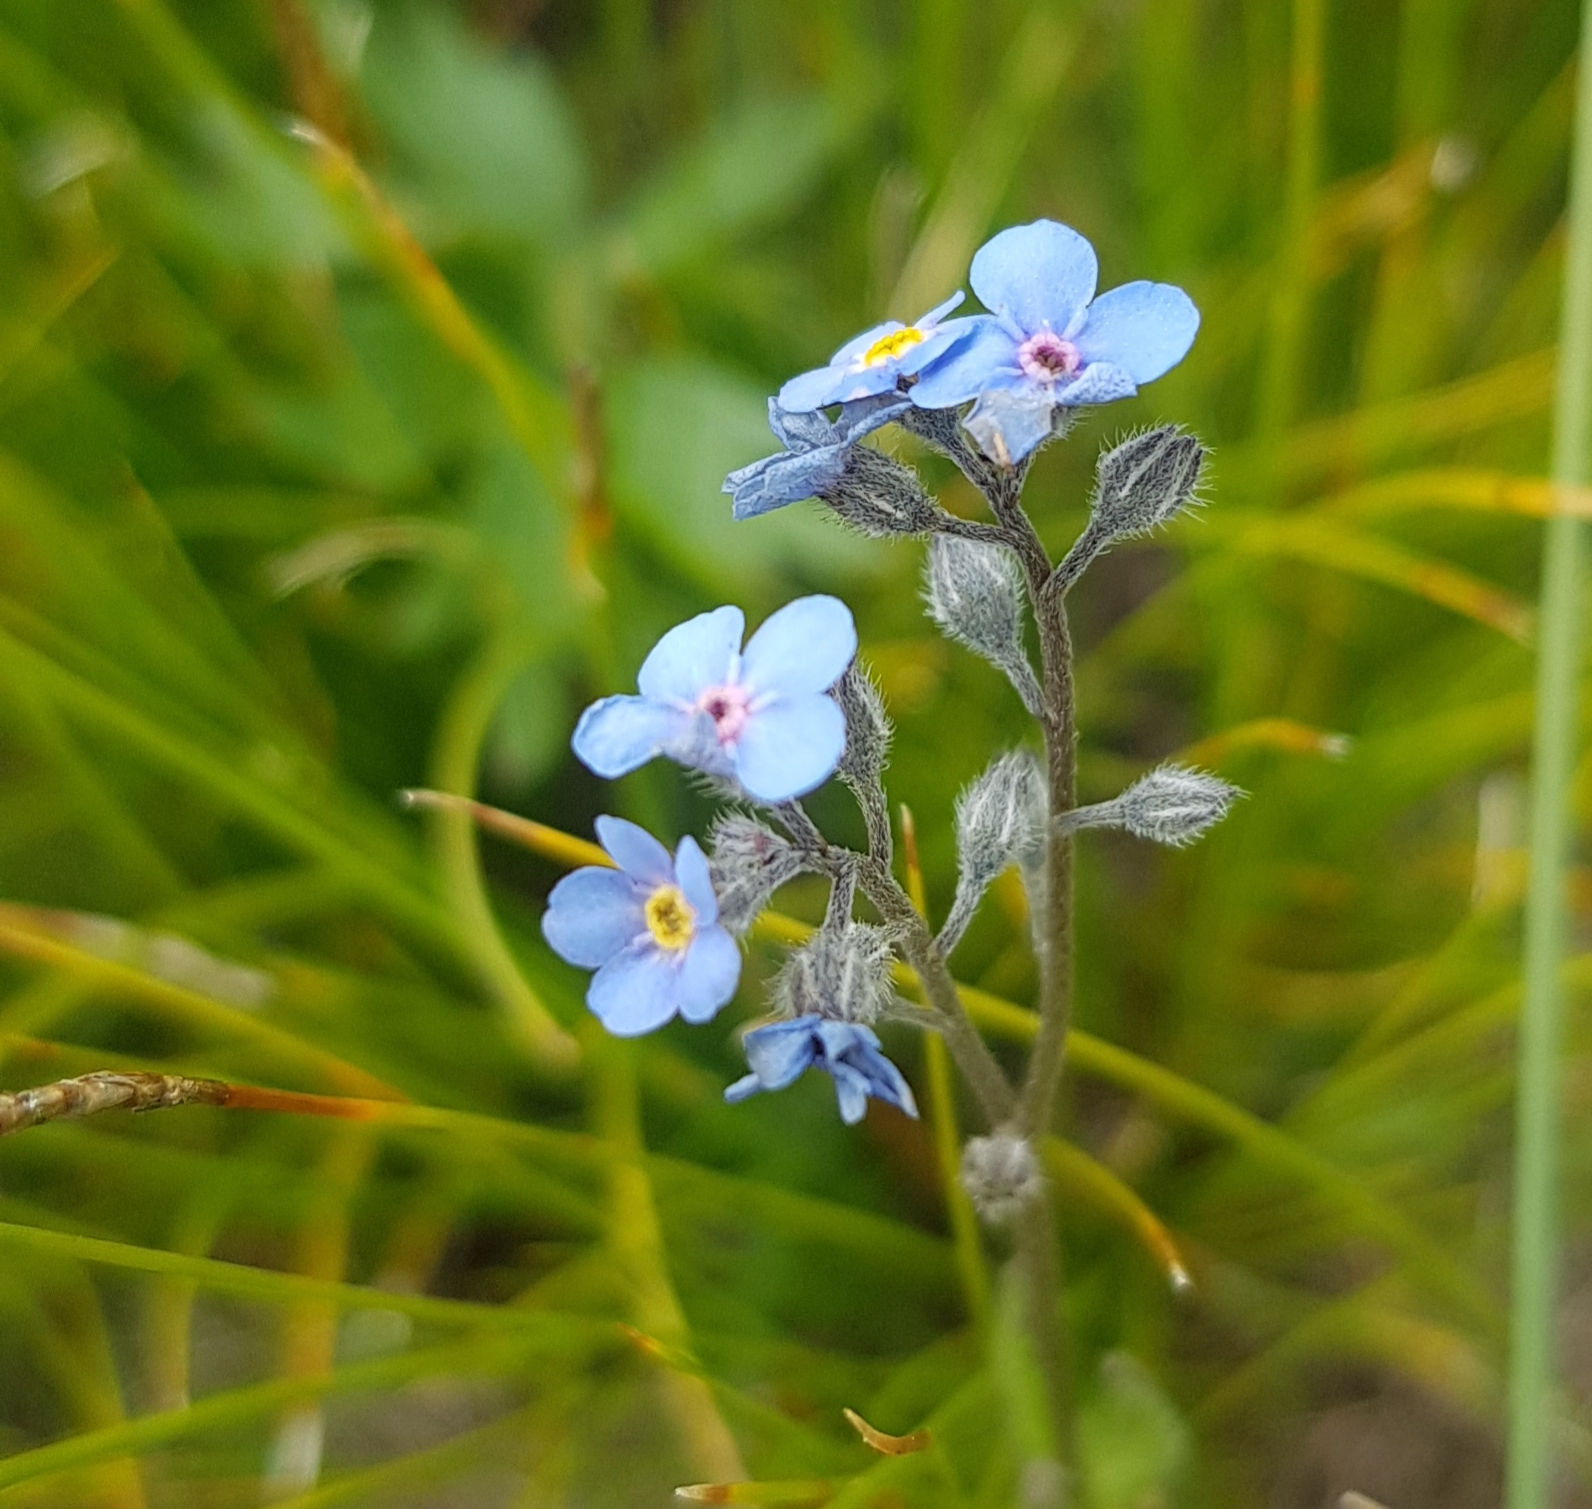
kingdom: Plantae
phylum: Tracheophyta
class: Magnoliopsida
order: Boraginales
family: Boraginaceae
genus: Myosotis
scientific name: Myosotis alpestris
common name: Alpine forget-me-not
